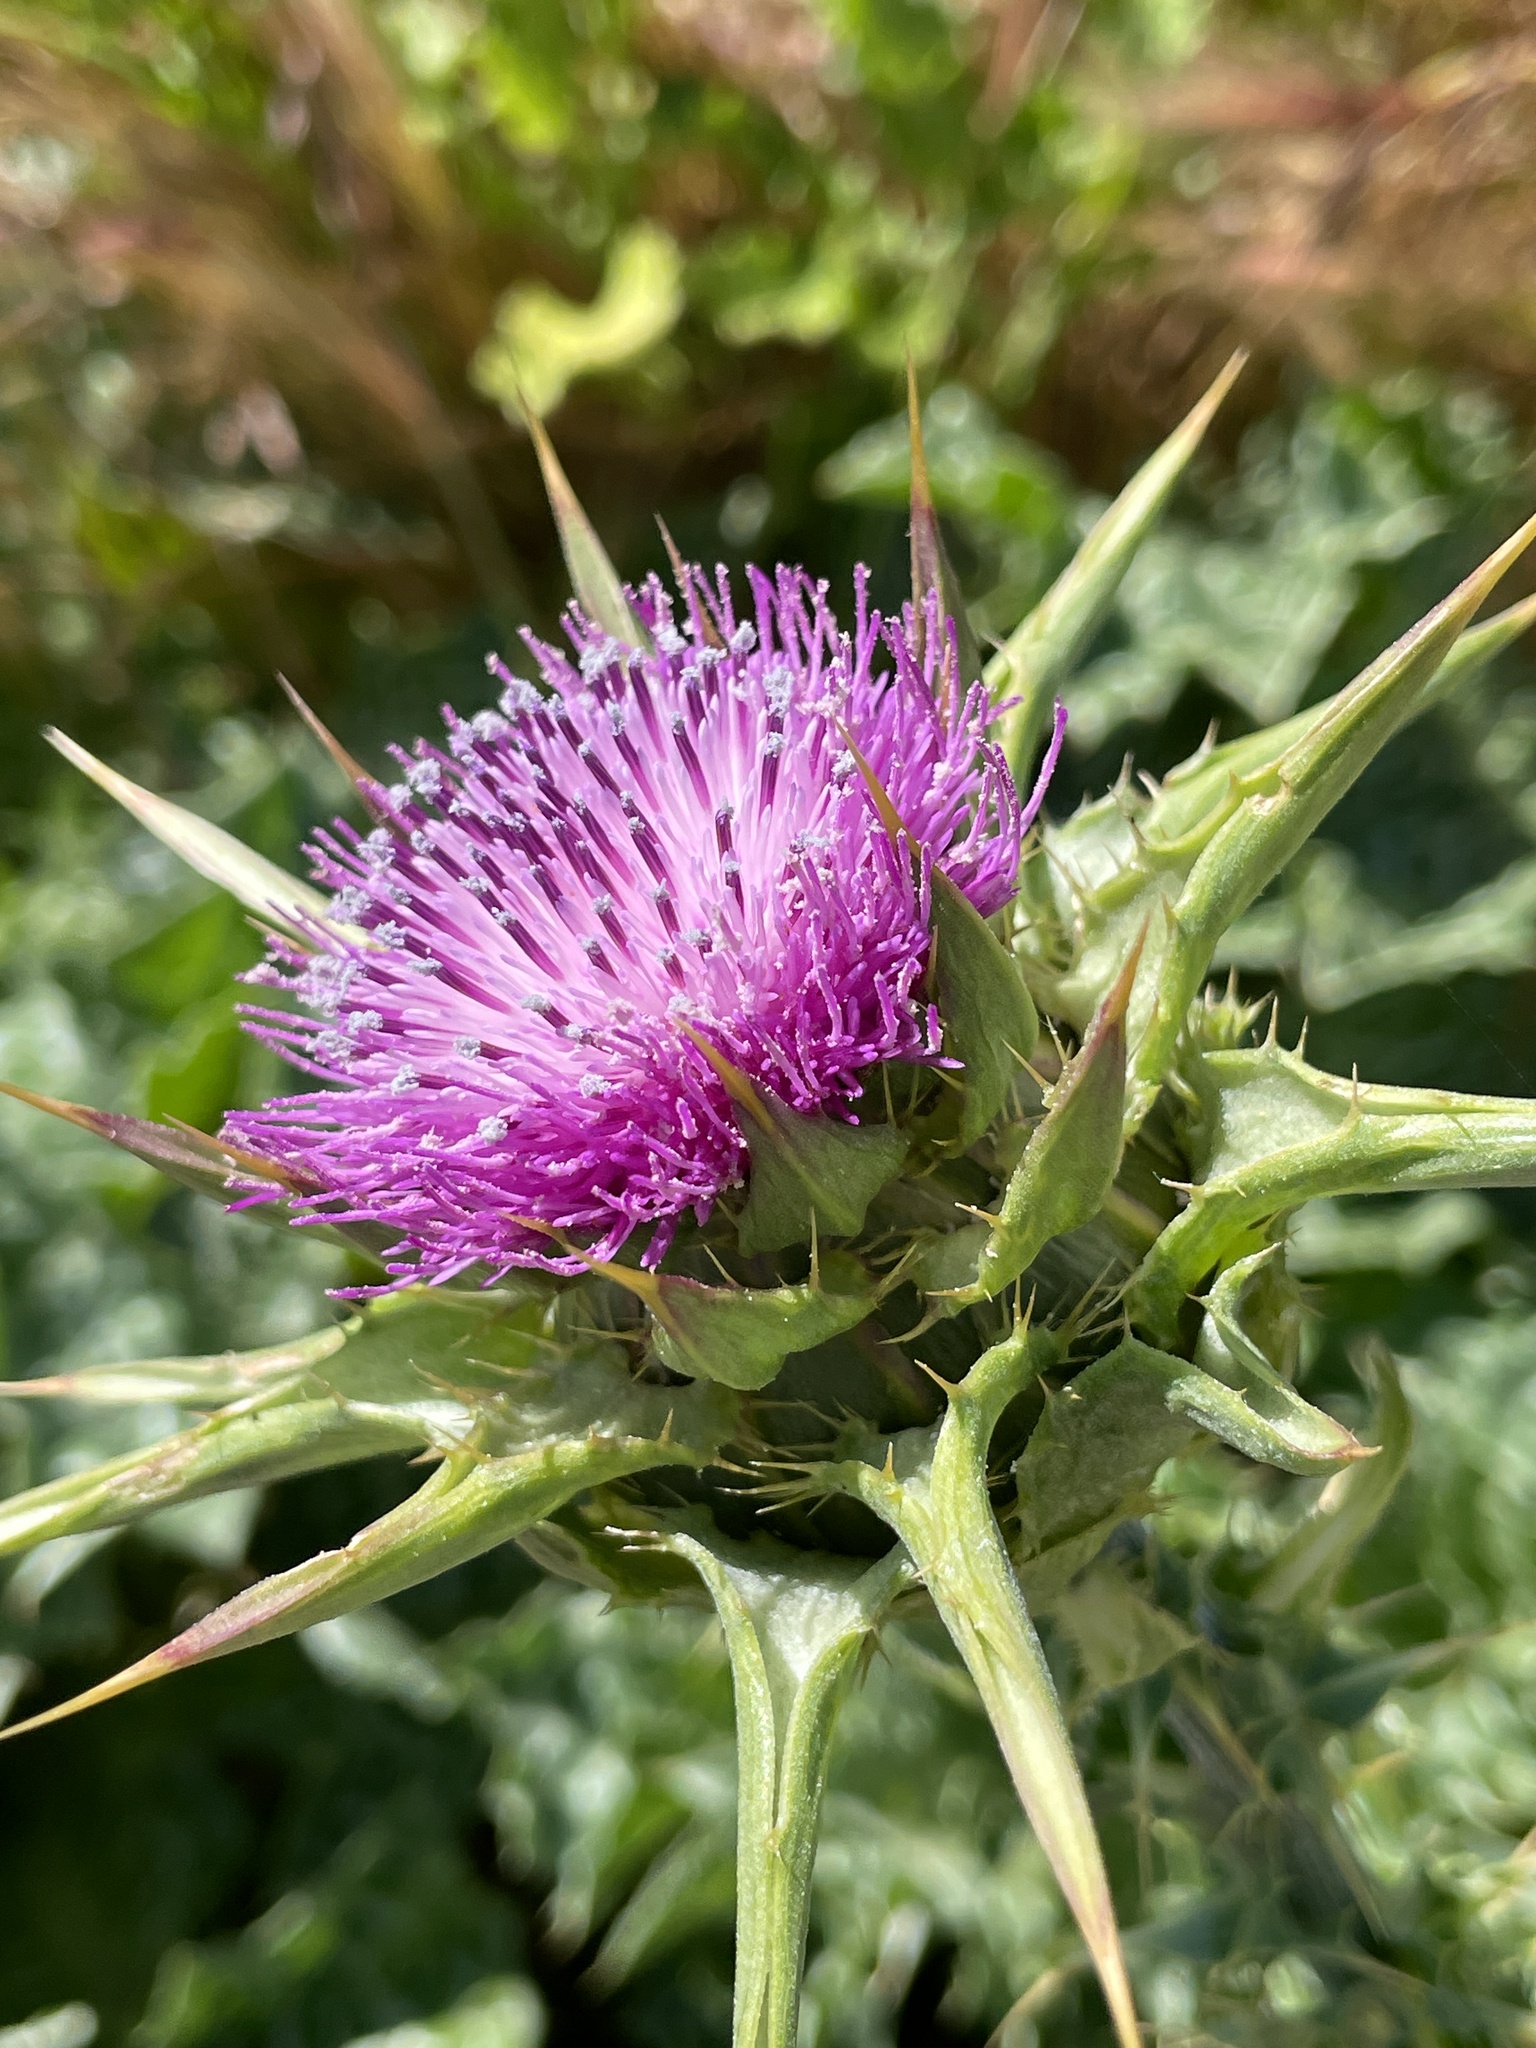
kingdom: Plantae
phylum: Tracheophyta
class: Magnoliopsida
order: Asterales
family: Asteraceae
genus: Silybum
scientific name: Silybum marianum
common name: Milk thistle
